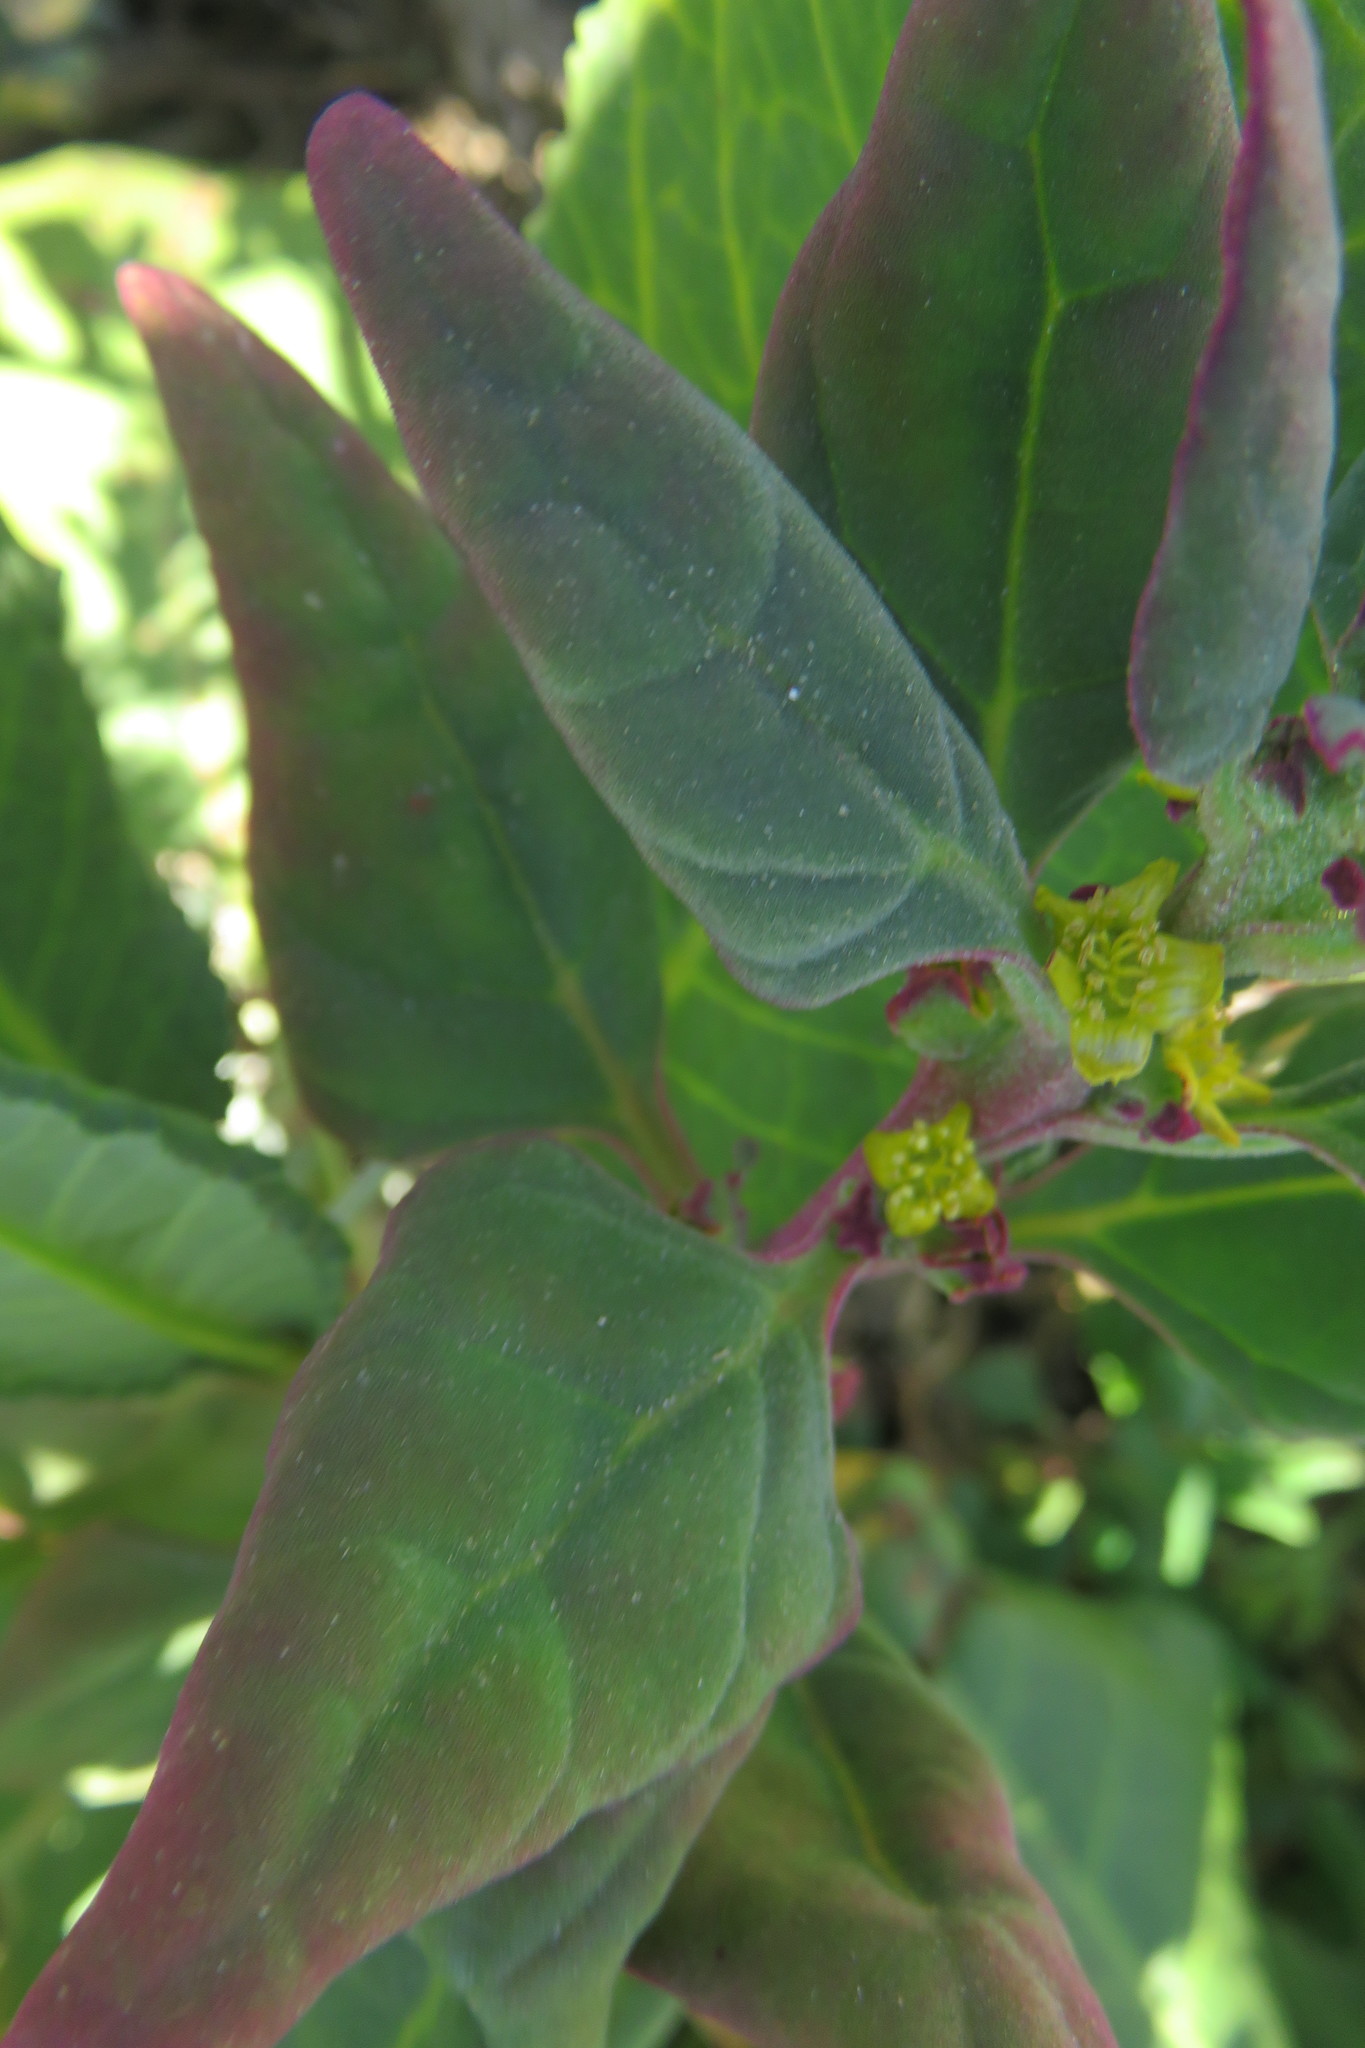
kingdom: Plantae
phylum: Tracheophyta
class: Magnoliopsida
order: Caryophyllales
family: Aizoaceae
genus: Tetragonia
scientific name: Tetragonia tetragonoides
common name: New zealand-spinach
